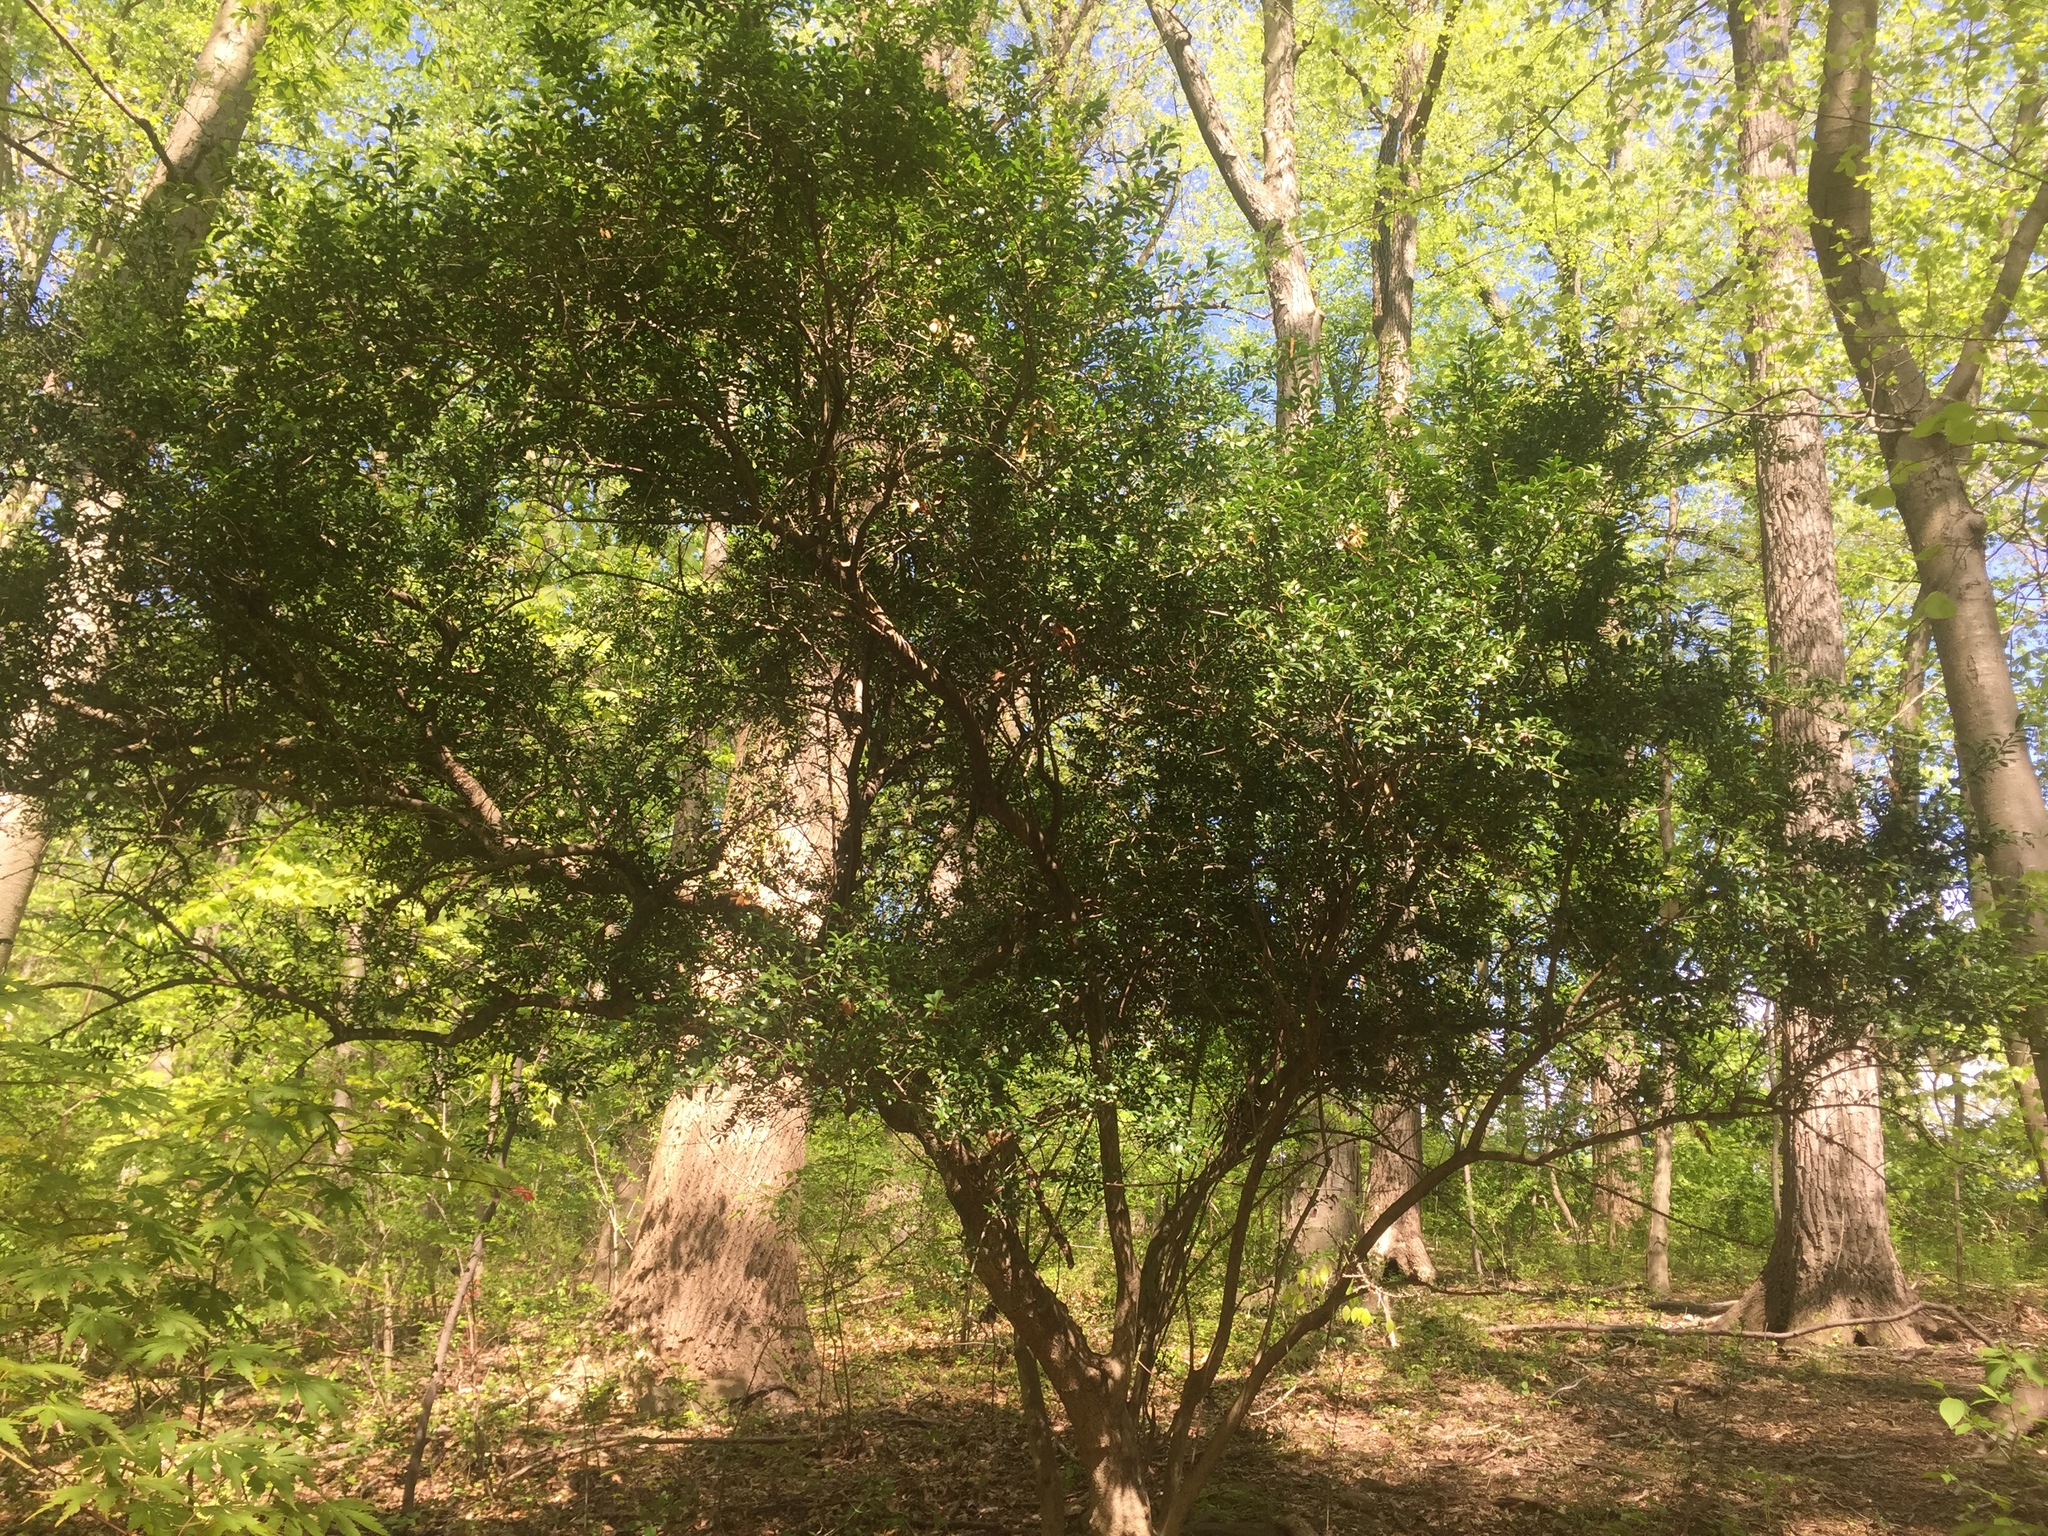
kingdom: Plantae
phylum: Tracheophyta
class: Magnoliopsida
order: Aquifoliales
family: Aquifoliaceae
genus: Ilex
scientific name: Ilex crenata
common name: Japanese holly
